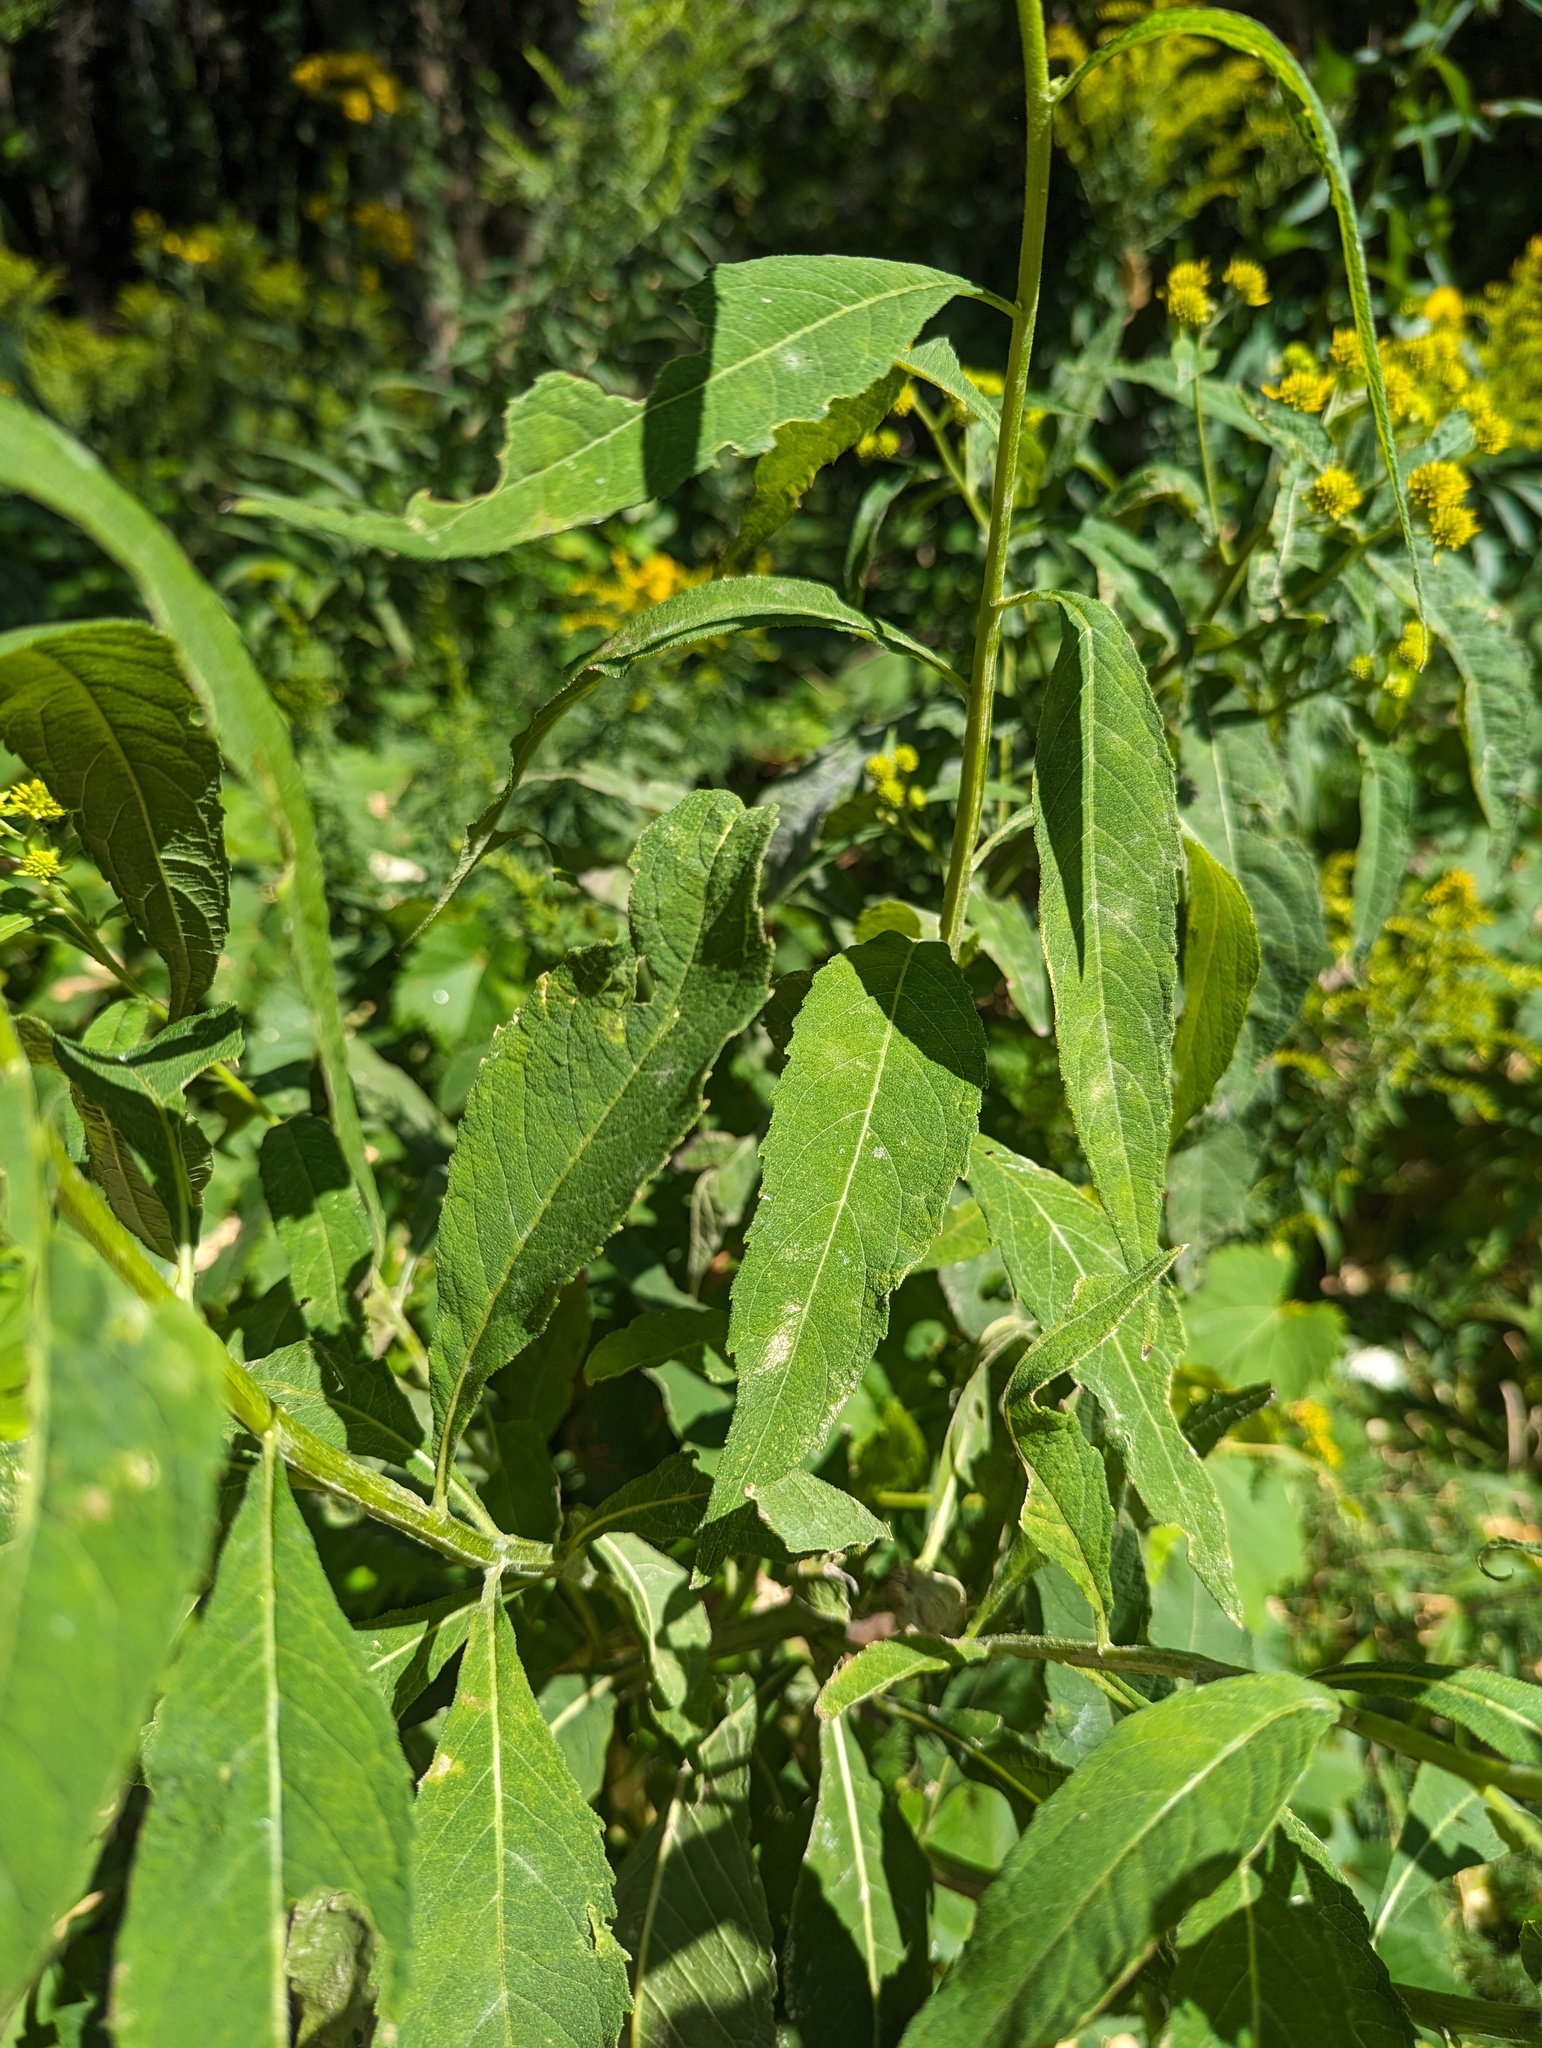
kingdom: Plantae
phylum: Tracheophyta
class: Magnoliopsida
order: Asterales
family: Asteraceae
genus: Verbesina
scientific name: Verbesina alternifolia
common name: Wingstem
